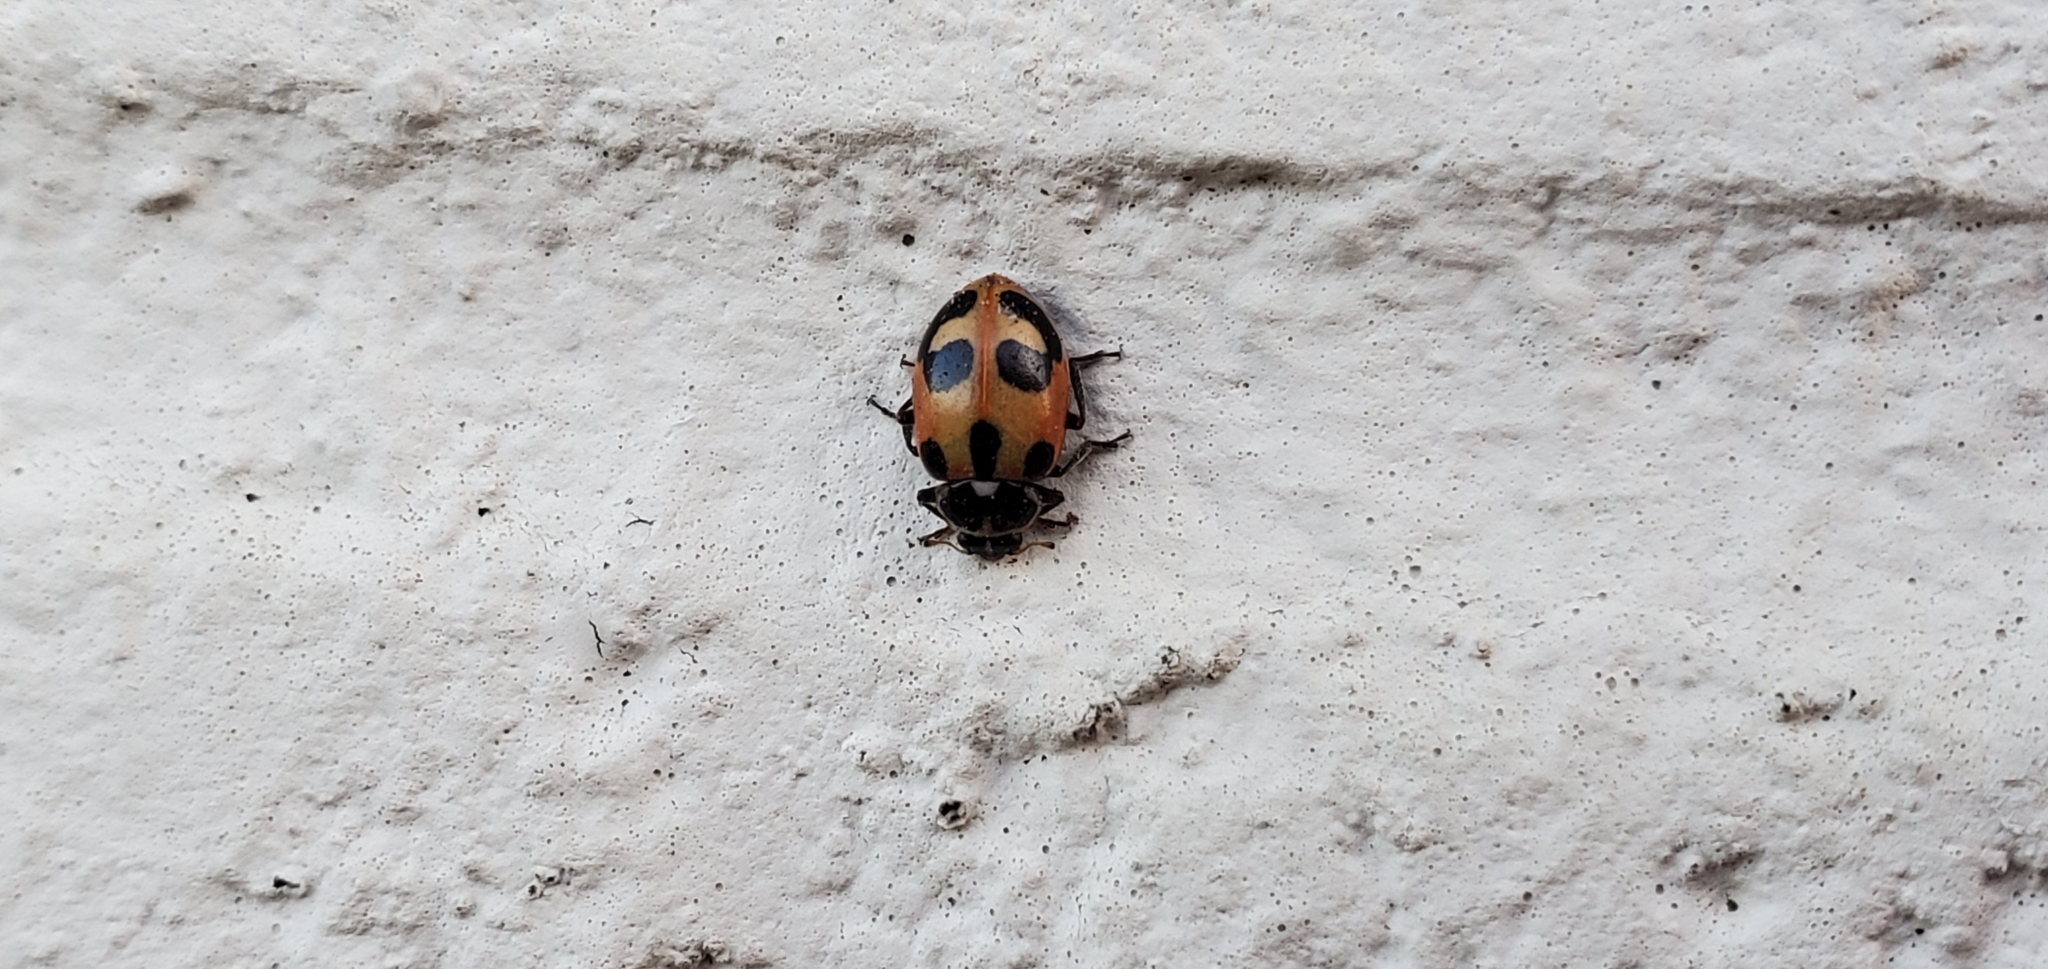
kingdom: Animalia
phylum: Arthropoda
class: Insecta
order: Coleoptera
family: Coccinellidae
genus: Hippodamia
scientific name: Hippodamia parenthesis
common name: Parenthesis lady beetle
